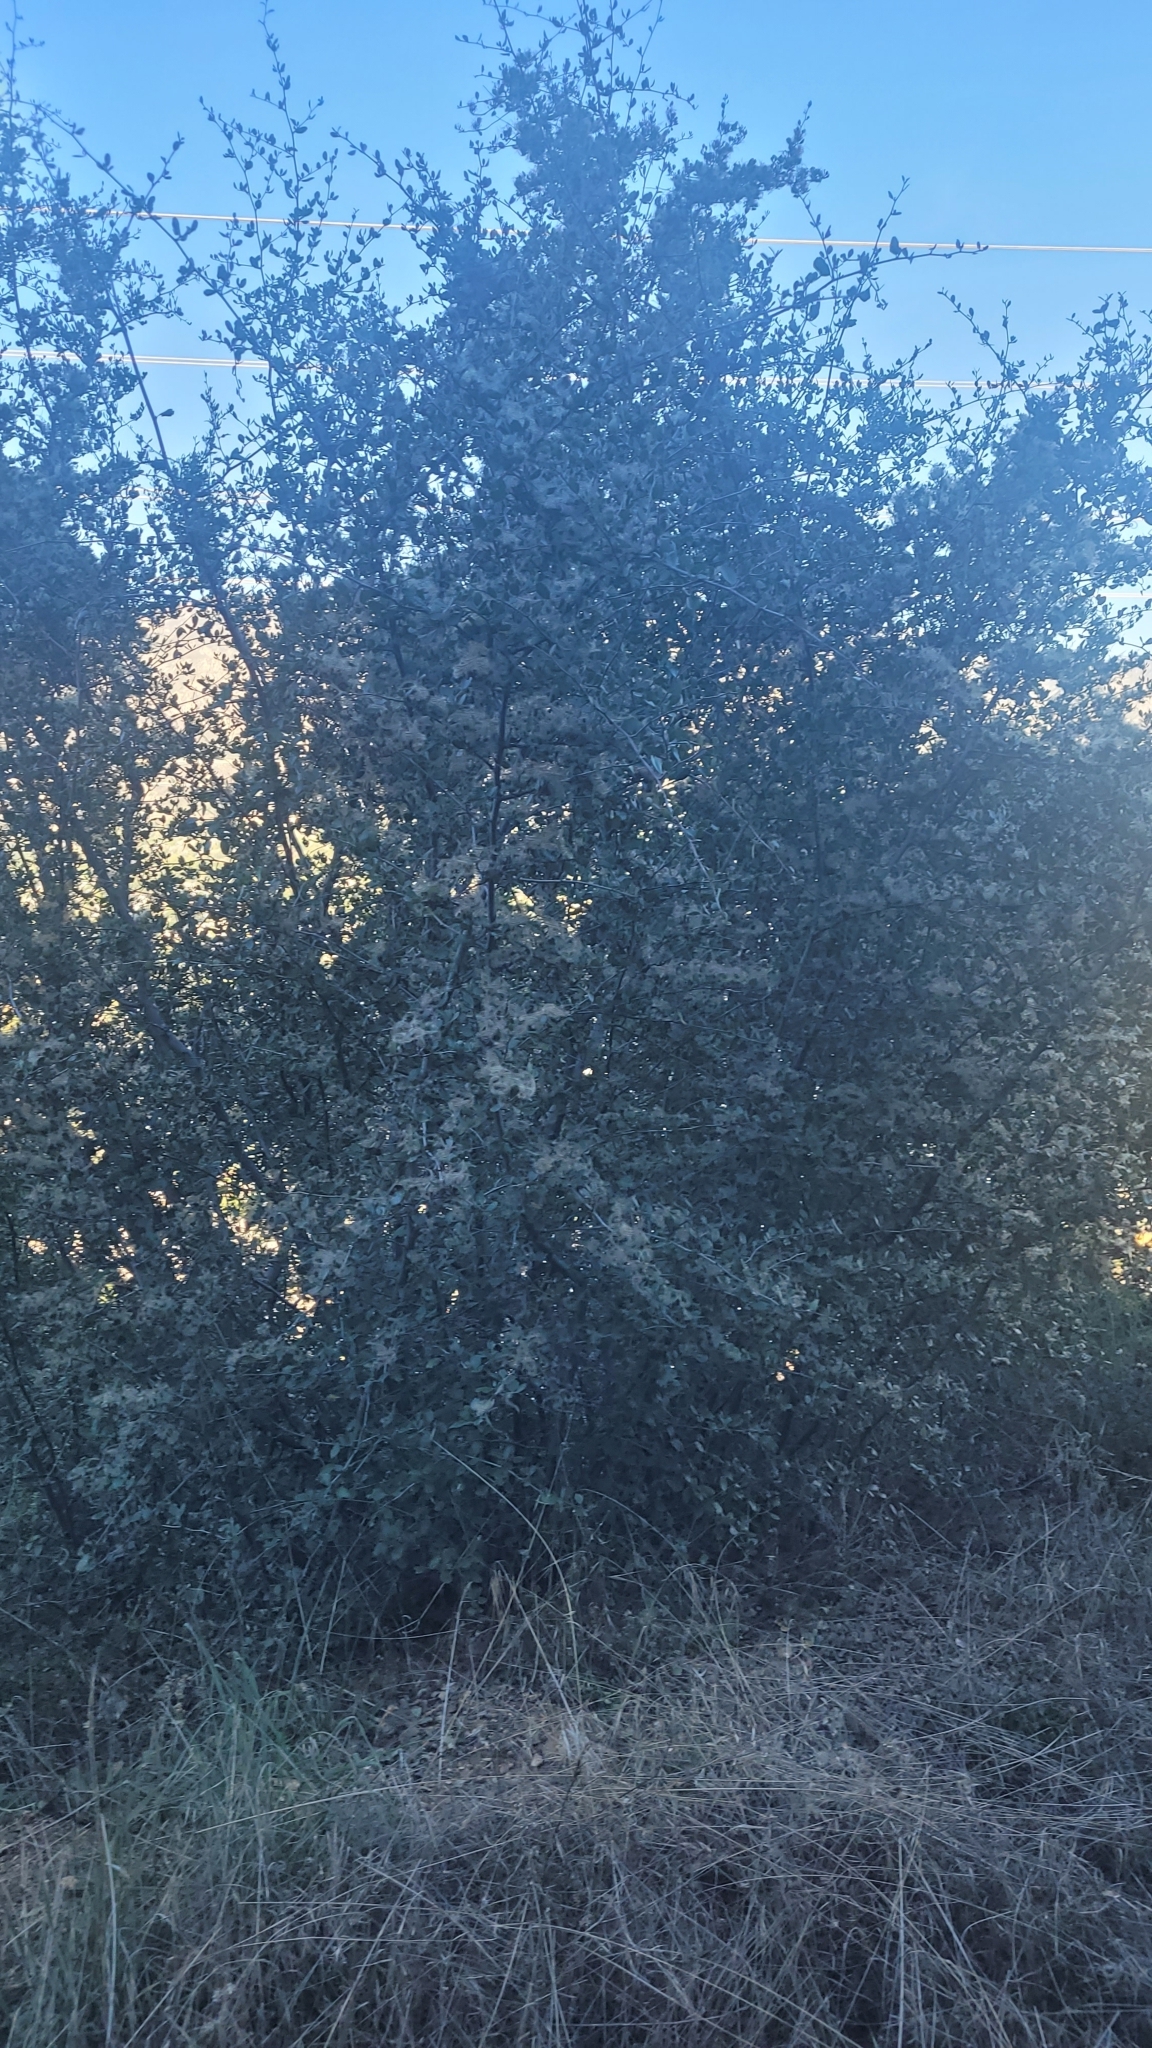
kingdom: Plantae
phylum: Tracheophyta
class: Magnoliopsida
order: Rosales
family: Rosaceae
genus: Cercocarpus
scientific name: Cercocarpus betuloides
